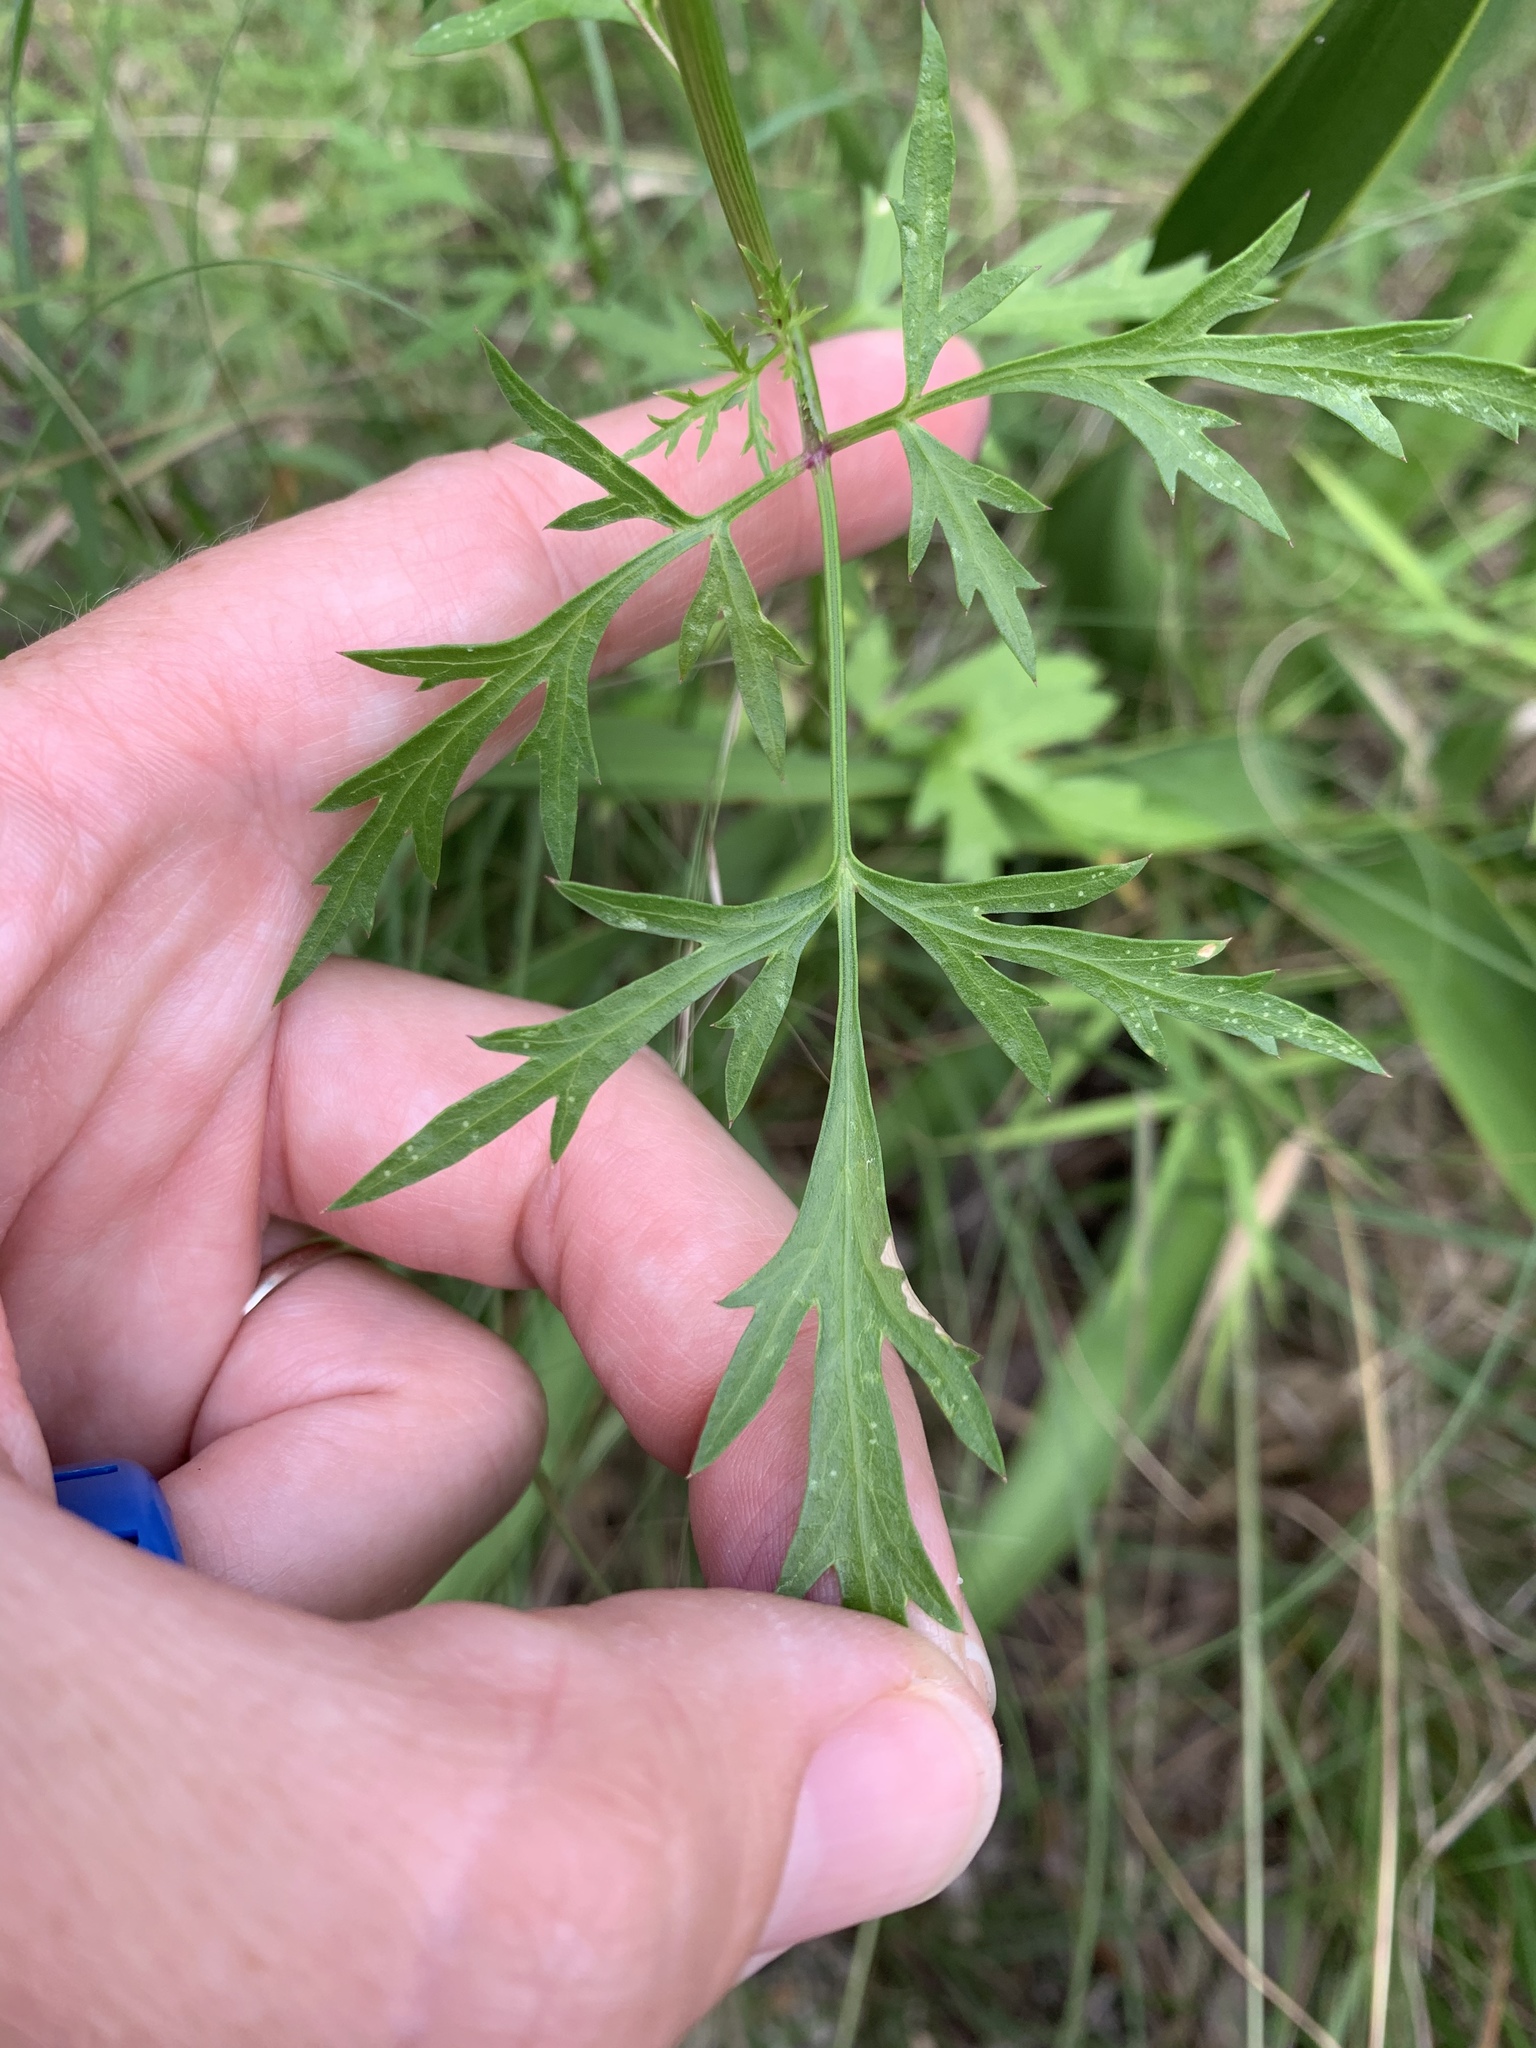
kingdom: Plantae
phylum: Tracheophyta
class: Magnoliopsida
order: Apiales
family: Apiaceae
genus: Daucosma
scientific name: Daucosma laciniatum
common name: Meadow-parasol
